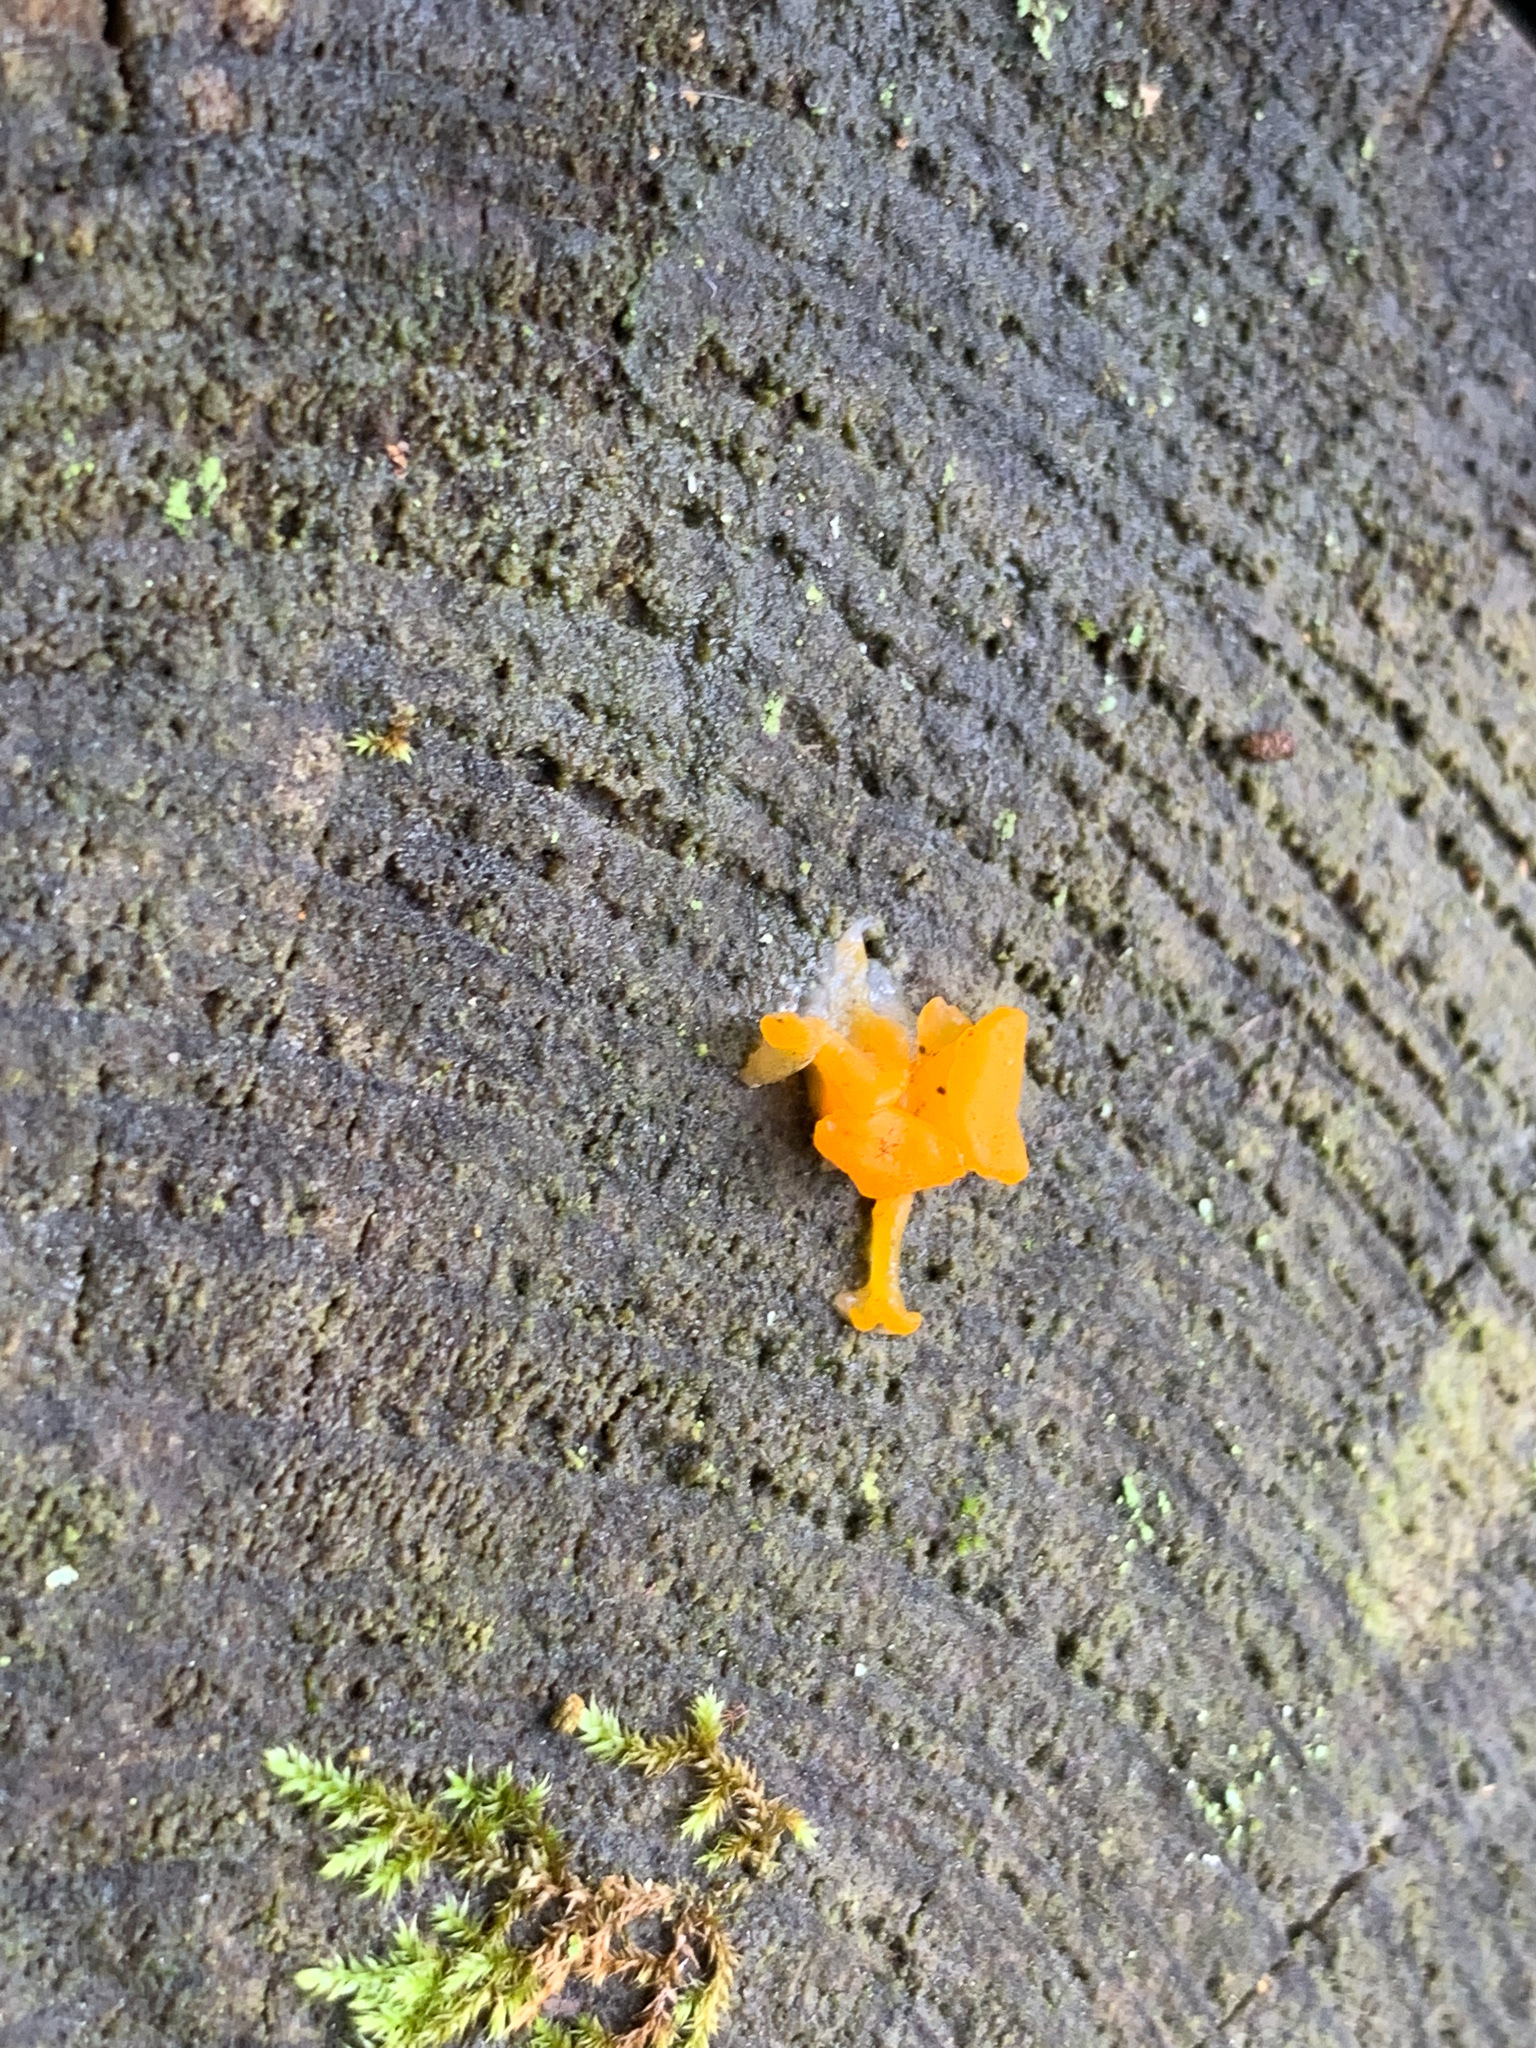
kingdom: Fungi
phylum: Basidiomycota
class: Dacrymycetes
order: Dacrymycetales
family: Dacrymycetaceae
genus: Dacrymyces
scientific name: Dacrymyces capitatus
